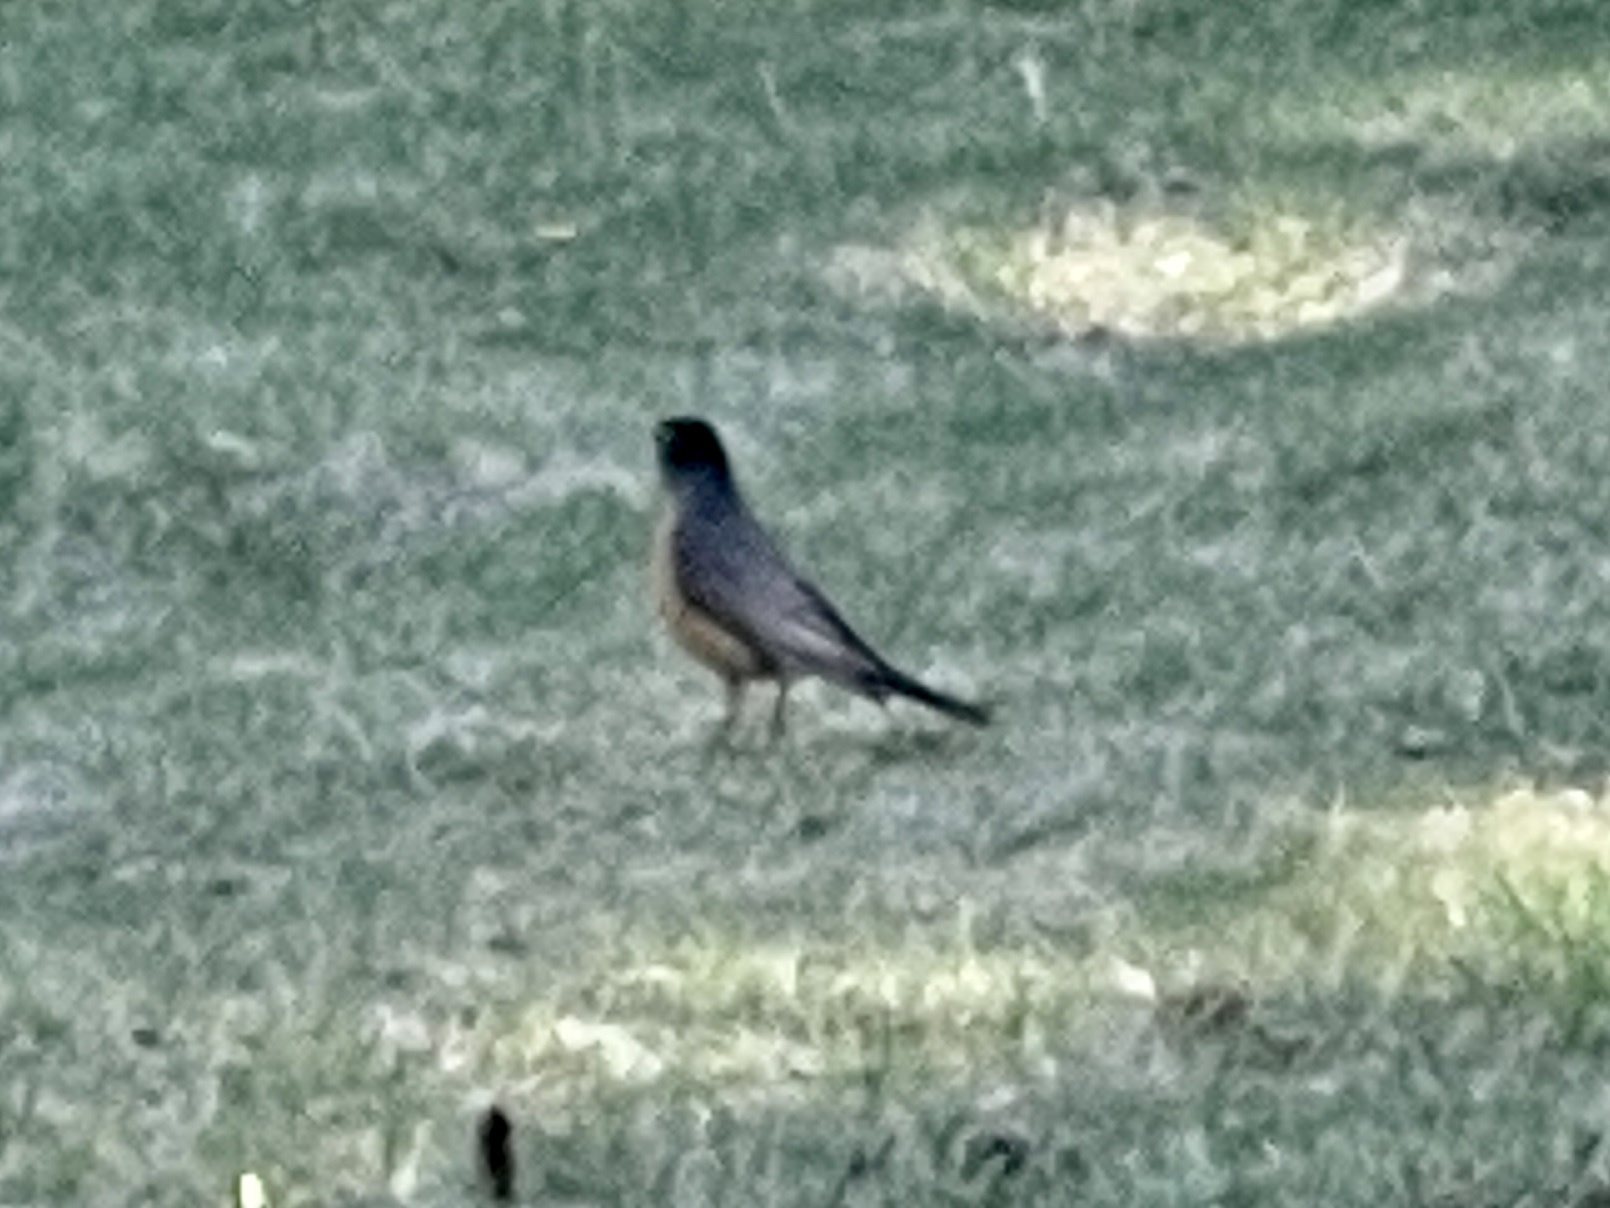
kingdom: Animalia
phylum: Chordata
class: Aves
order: Passeriformes
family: Turdidae
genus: Turdus
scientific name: Turdus migratorius
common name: American robin
